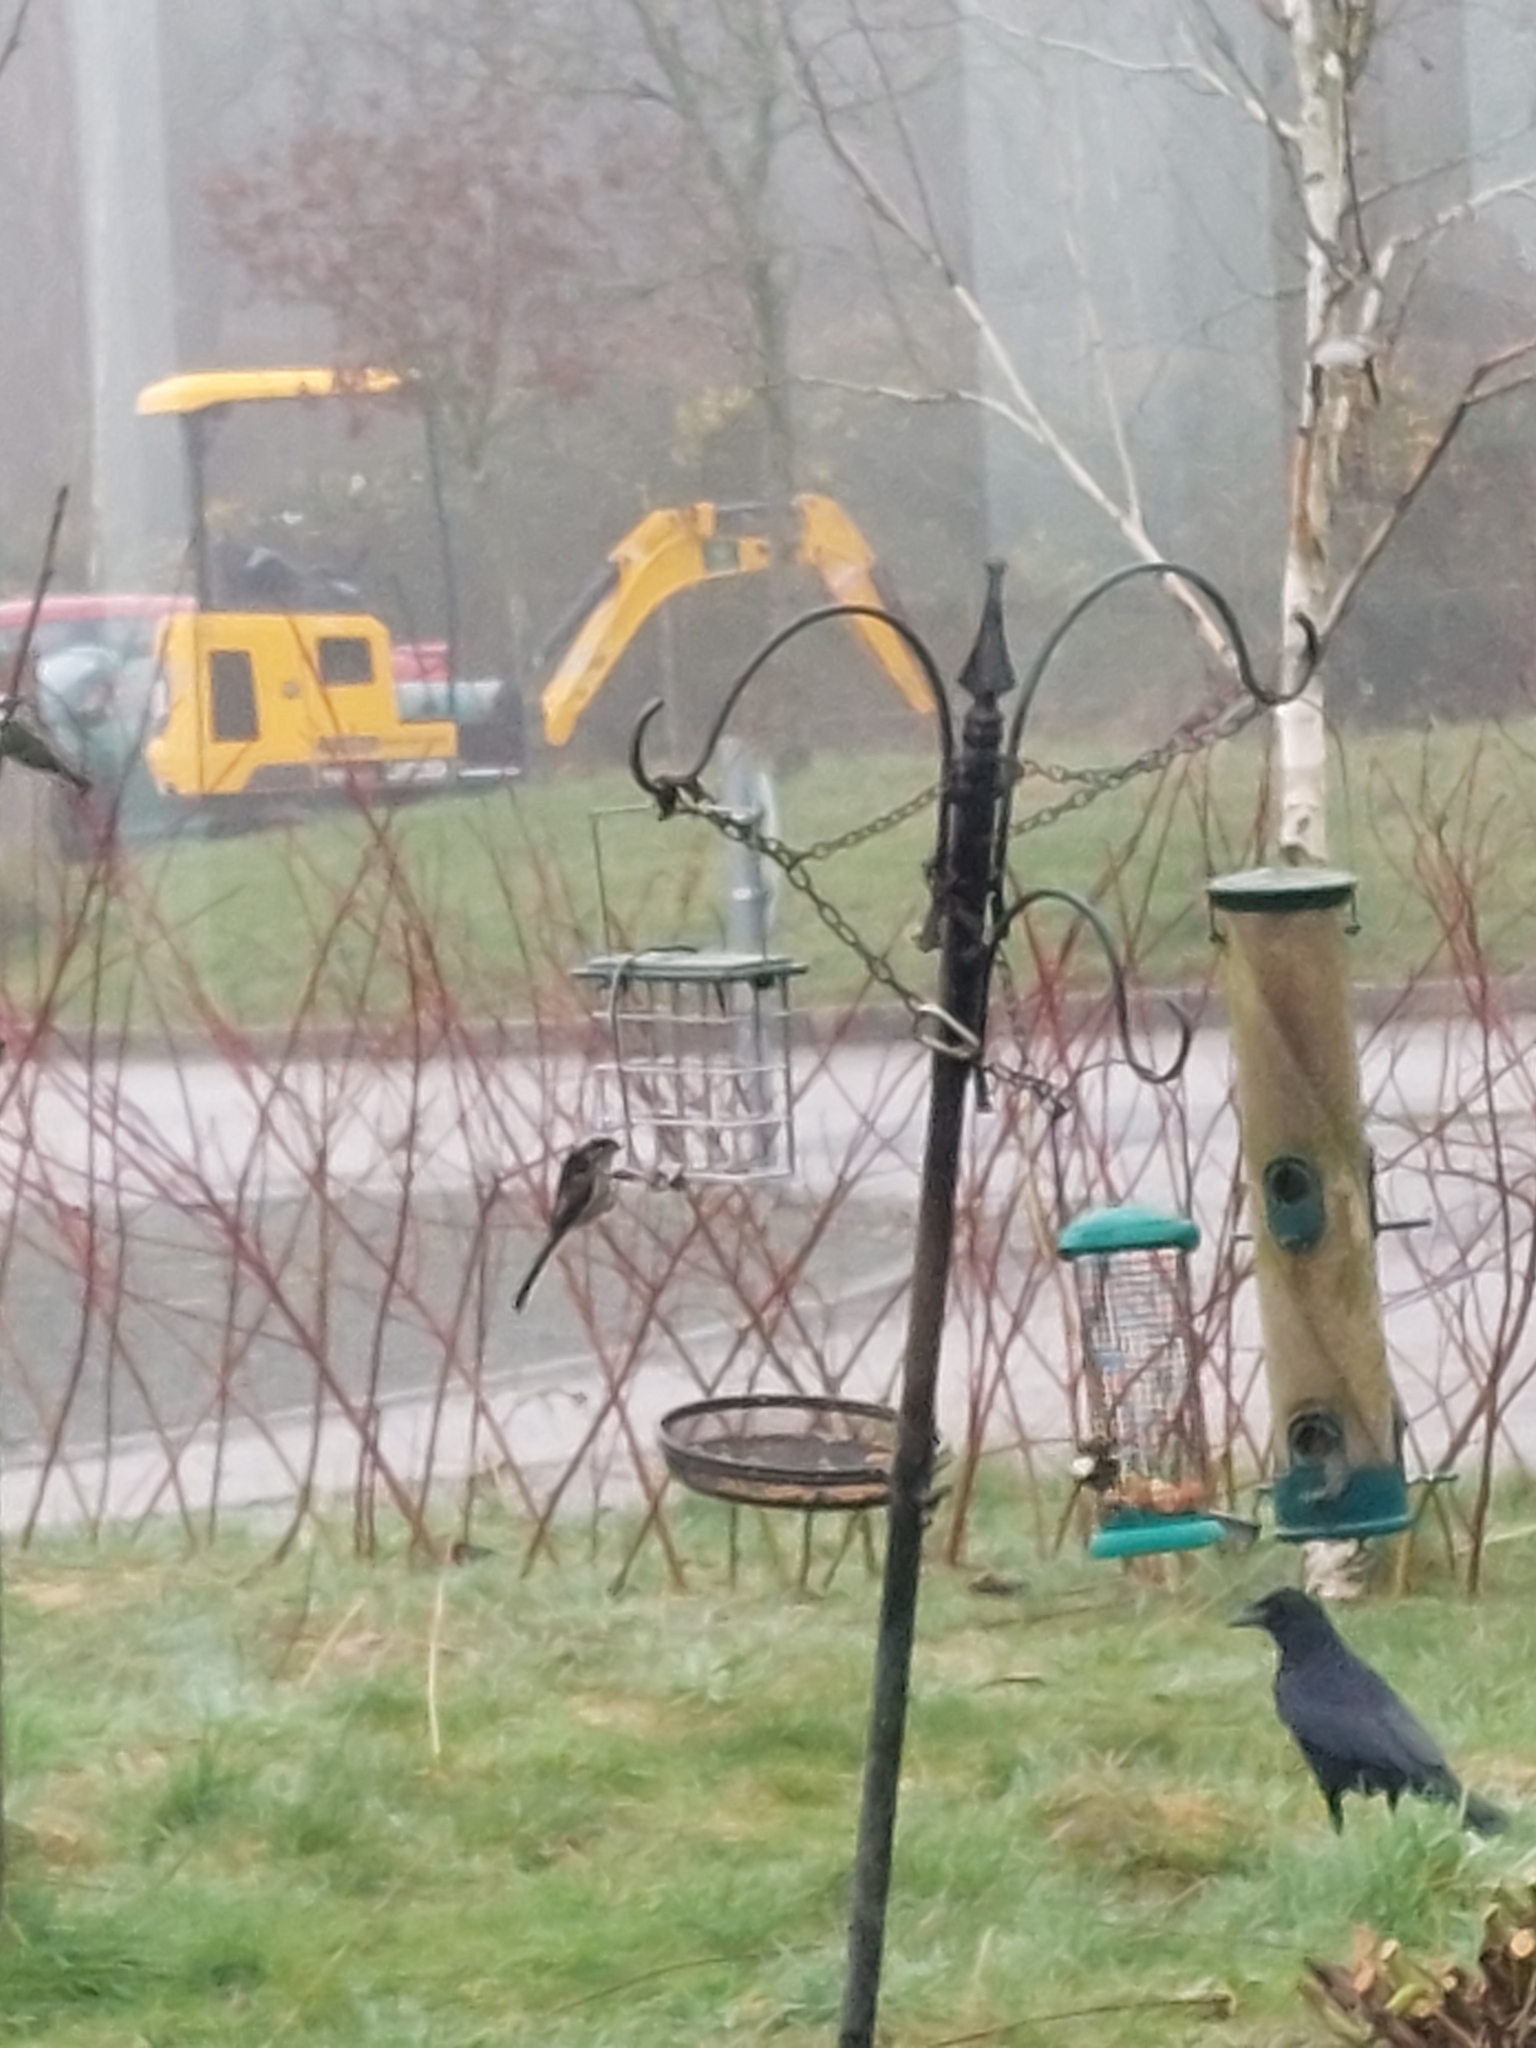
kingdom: Animalia
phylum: Chordata
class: Aves
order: Passeriformes
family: Aegithalidae
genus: Aegithalos
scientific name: Aegithalos caudatus
